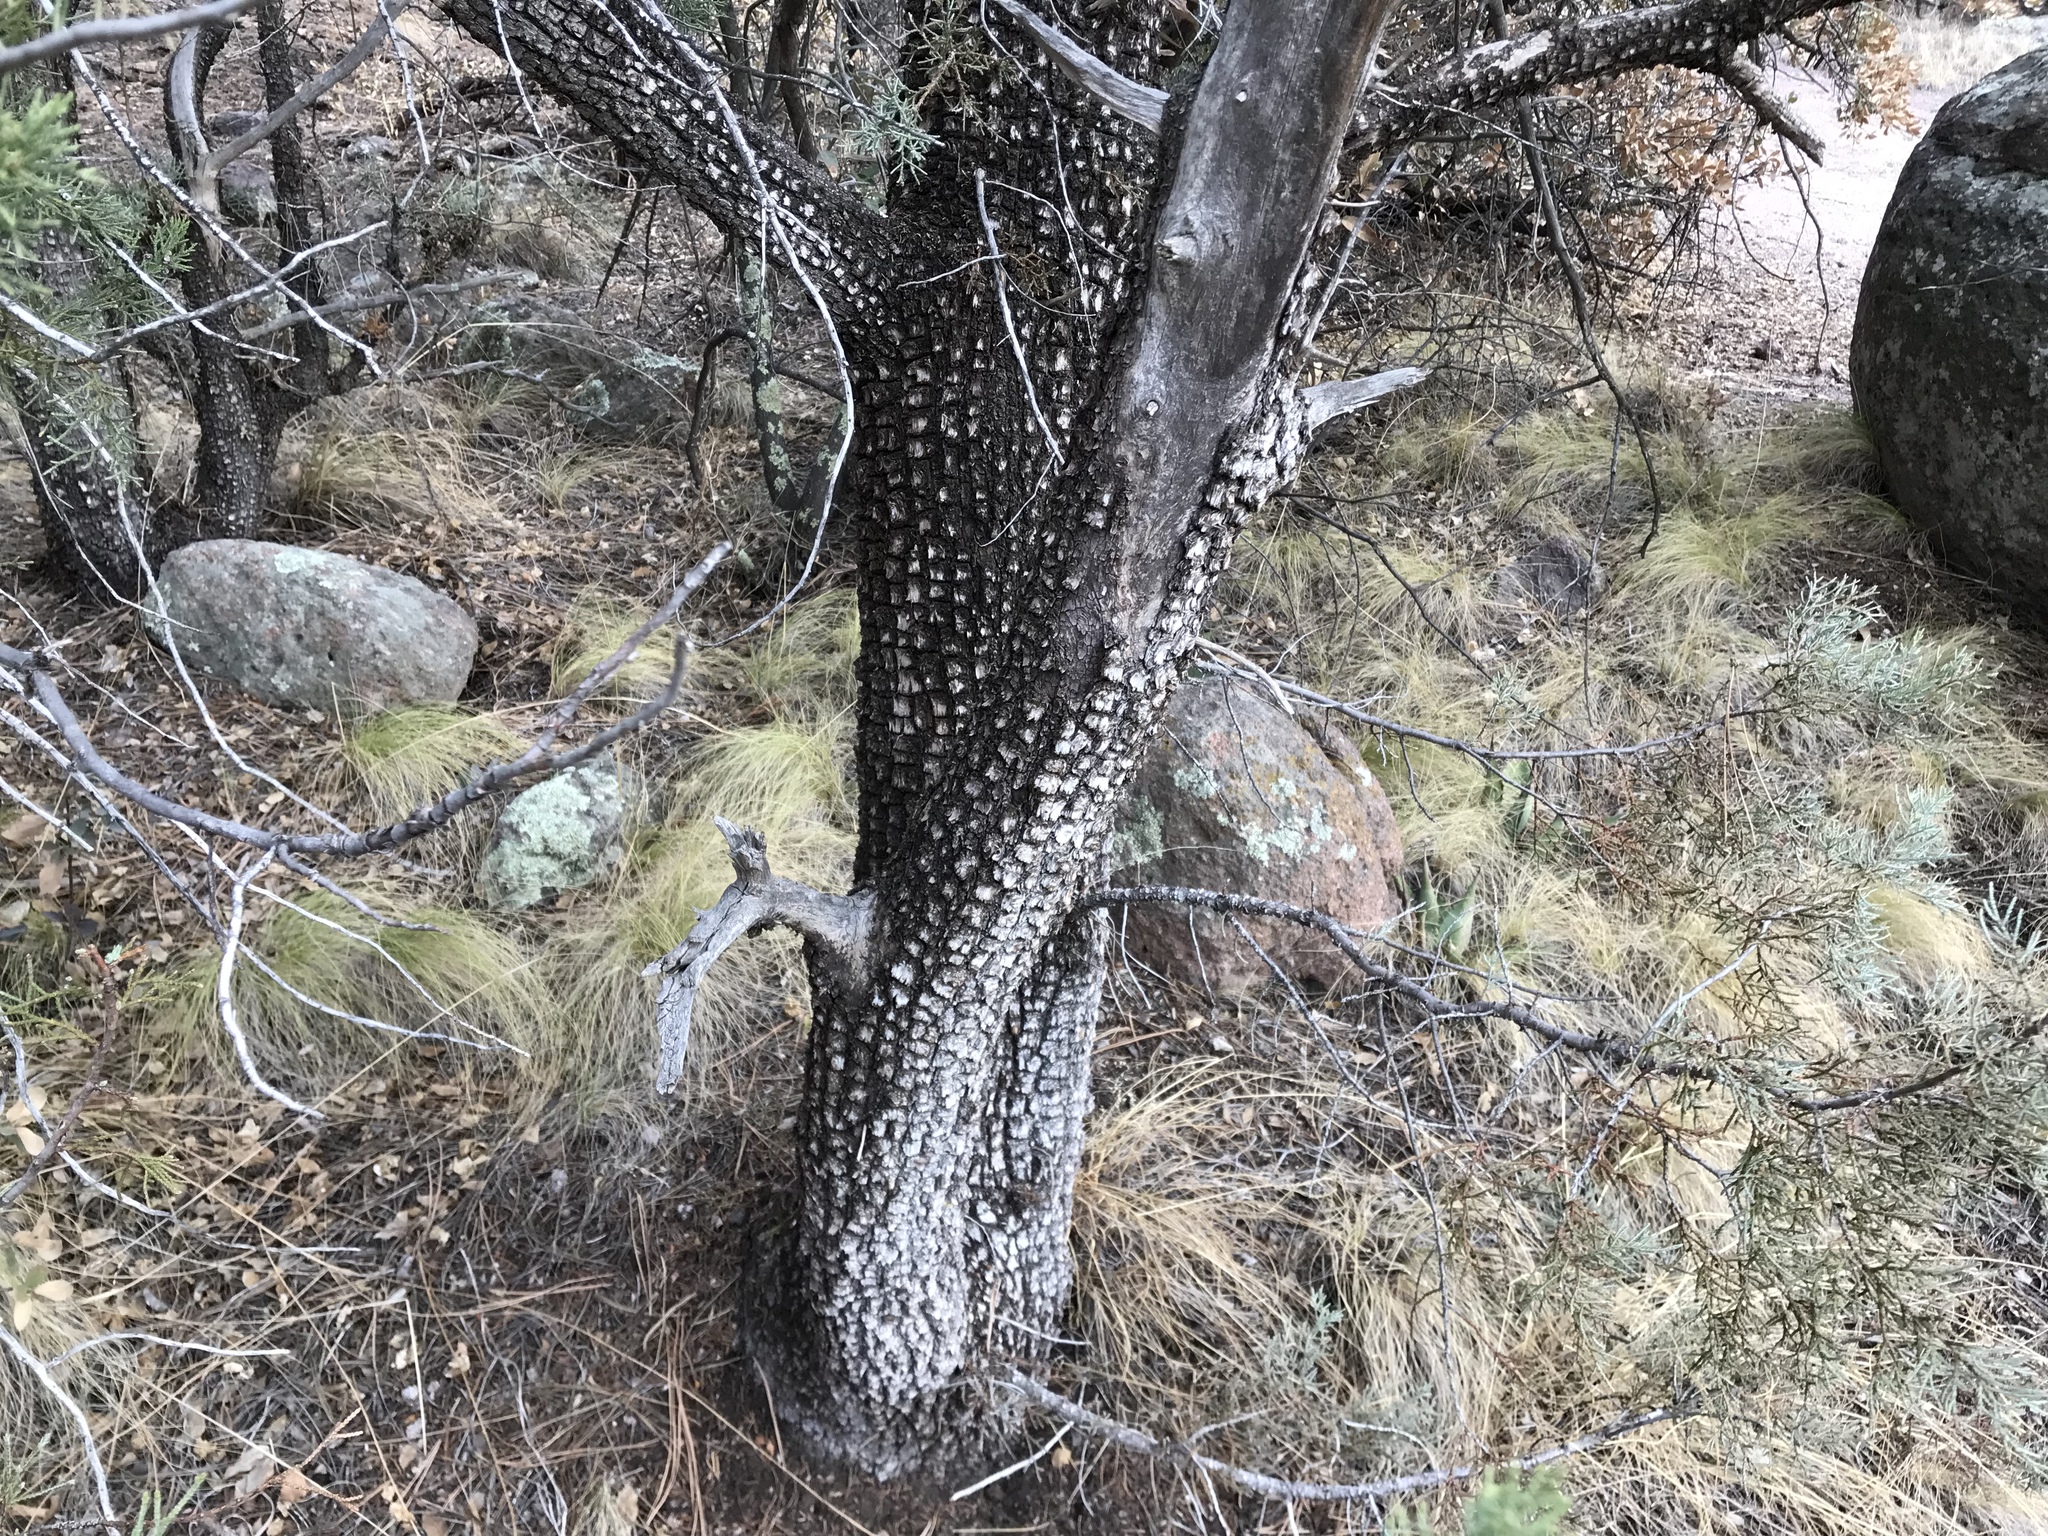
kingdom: Plantae
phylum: Tracheophyta
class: Pinopsida
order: Pinales
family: Cupressaceae
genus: Juniperus
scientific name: Juniperus deppeana
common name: Alligator juniper
